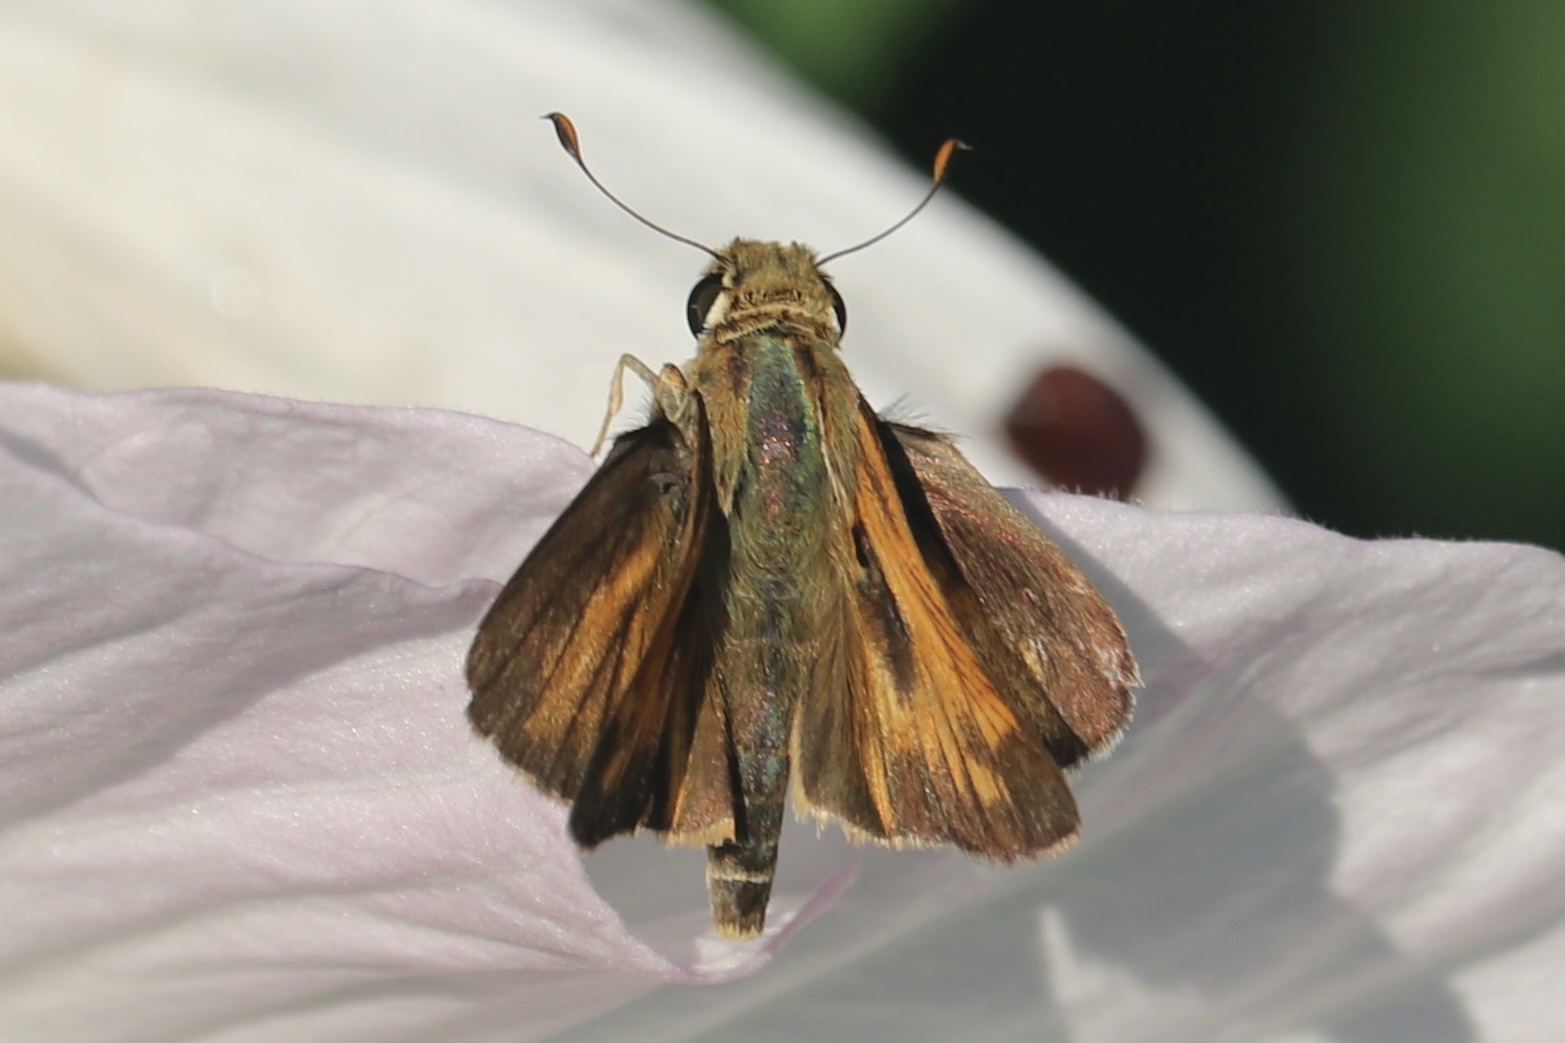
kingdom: Animalia
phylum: Arthropoda
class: Insecta
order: Lepidoptera
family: Hesperiidae
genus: Atalopedes
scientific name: Atalopedes
